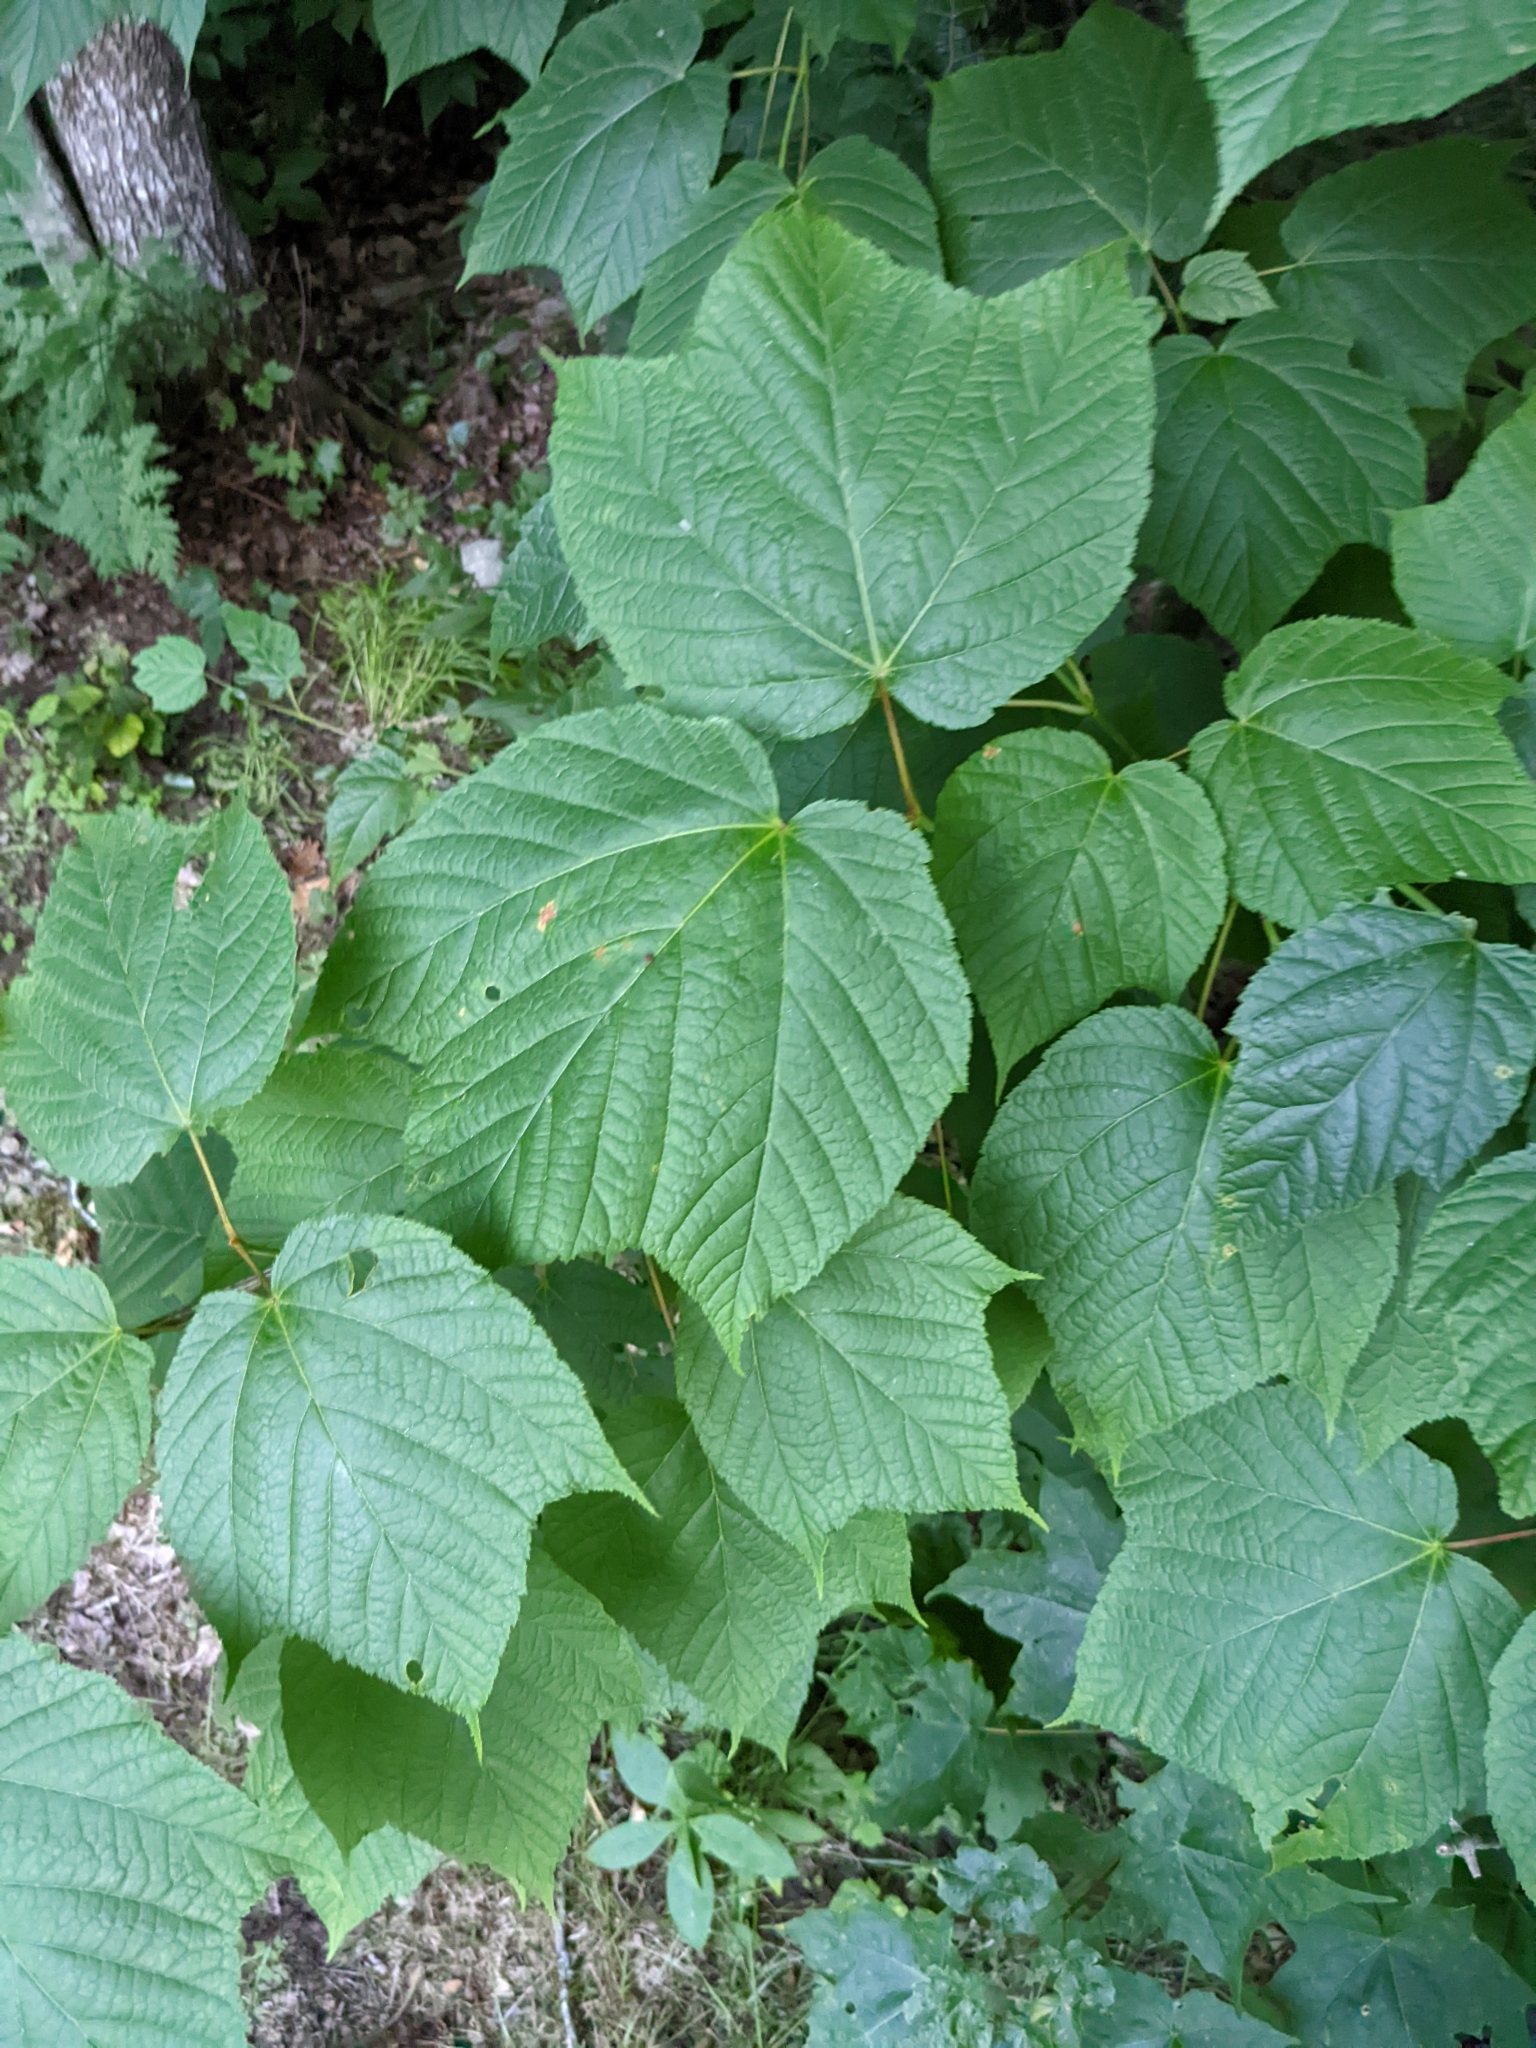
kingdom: Plantae
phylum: Tracheophyta
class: Magnoliopsida
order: Sapindales
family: Sapindaceae
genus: Acer
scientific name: Acer pensylvanicum
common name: Moosewood
